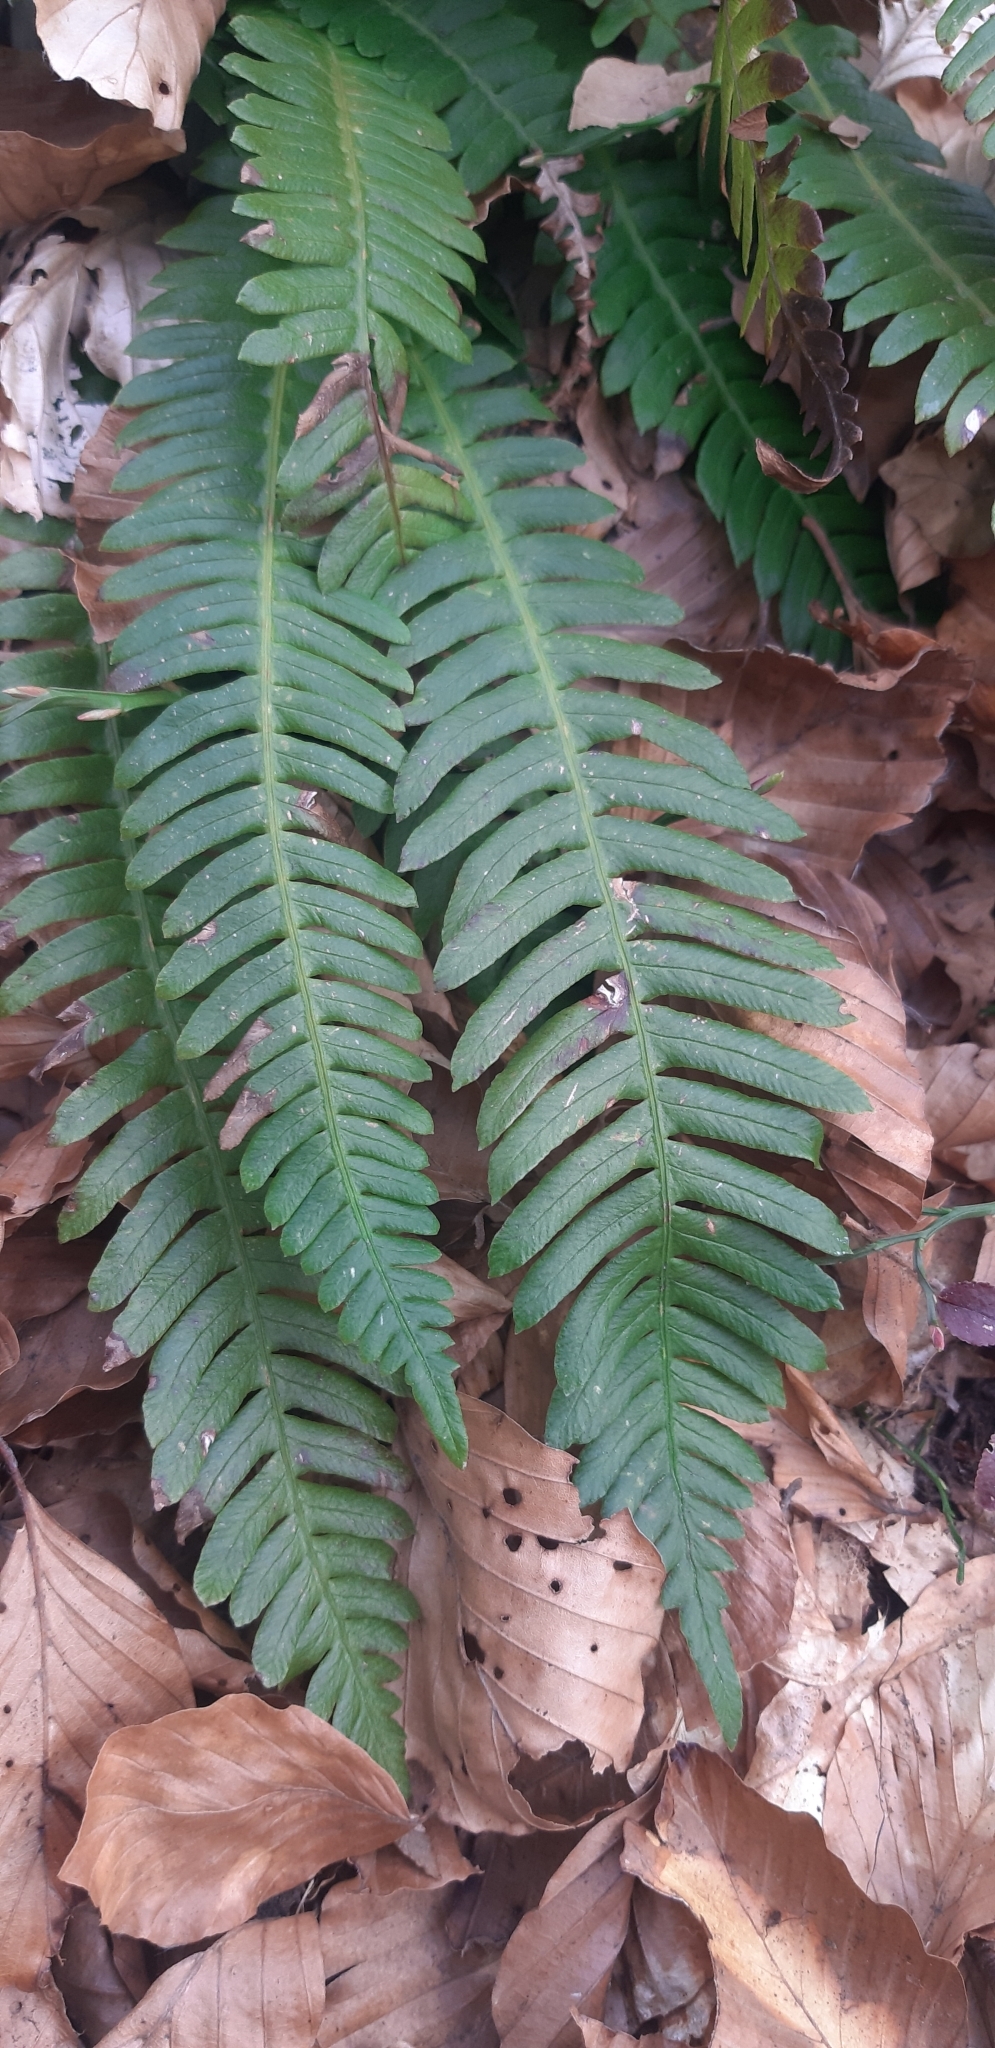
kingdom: Plantae
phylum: Tracheophyta
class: Polypodiopsida
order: Polypodiales
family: Blechnaceae
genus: Struthiopteris
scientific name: Struthiopteris spicant
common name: Deer fern
